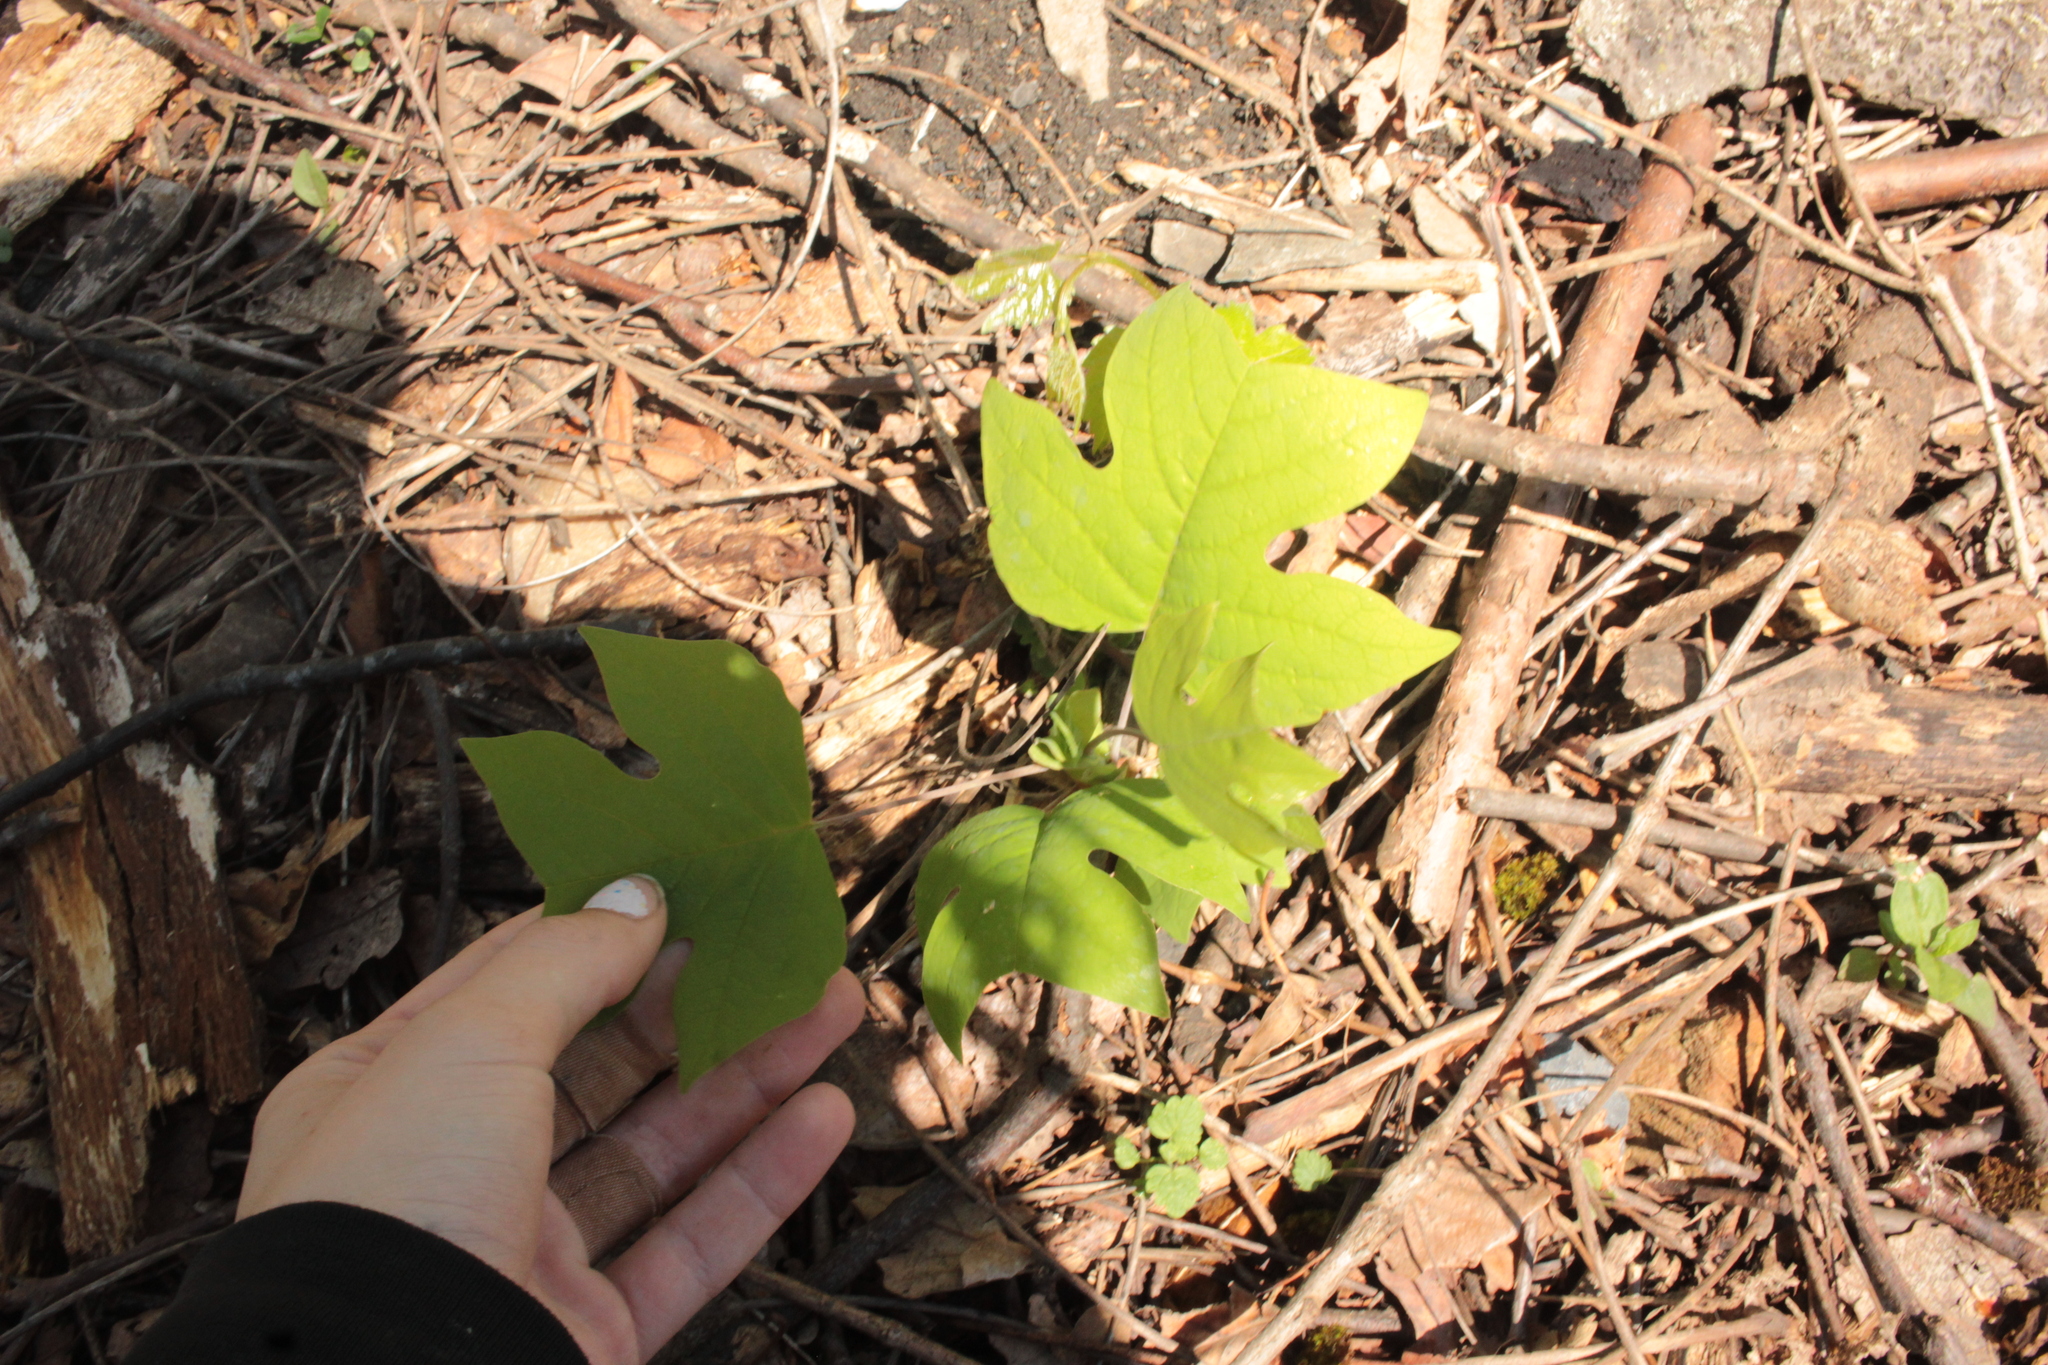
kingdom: Plantae
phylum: Tracheophyta
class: Magnoliopsida
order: Magnoliales
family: Magnoliaceae
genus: Liriodendron
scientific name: Liriodendron tulipifera
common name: Tulip tree
